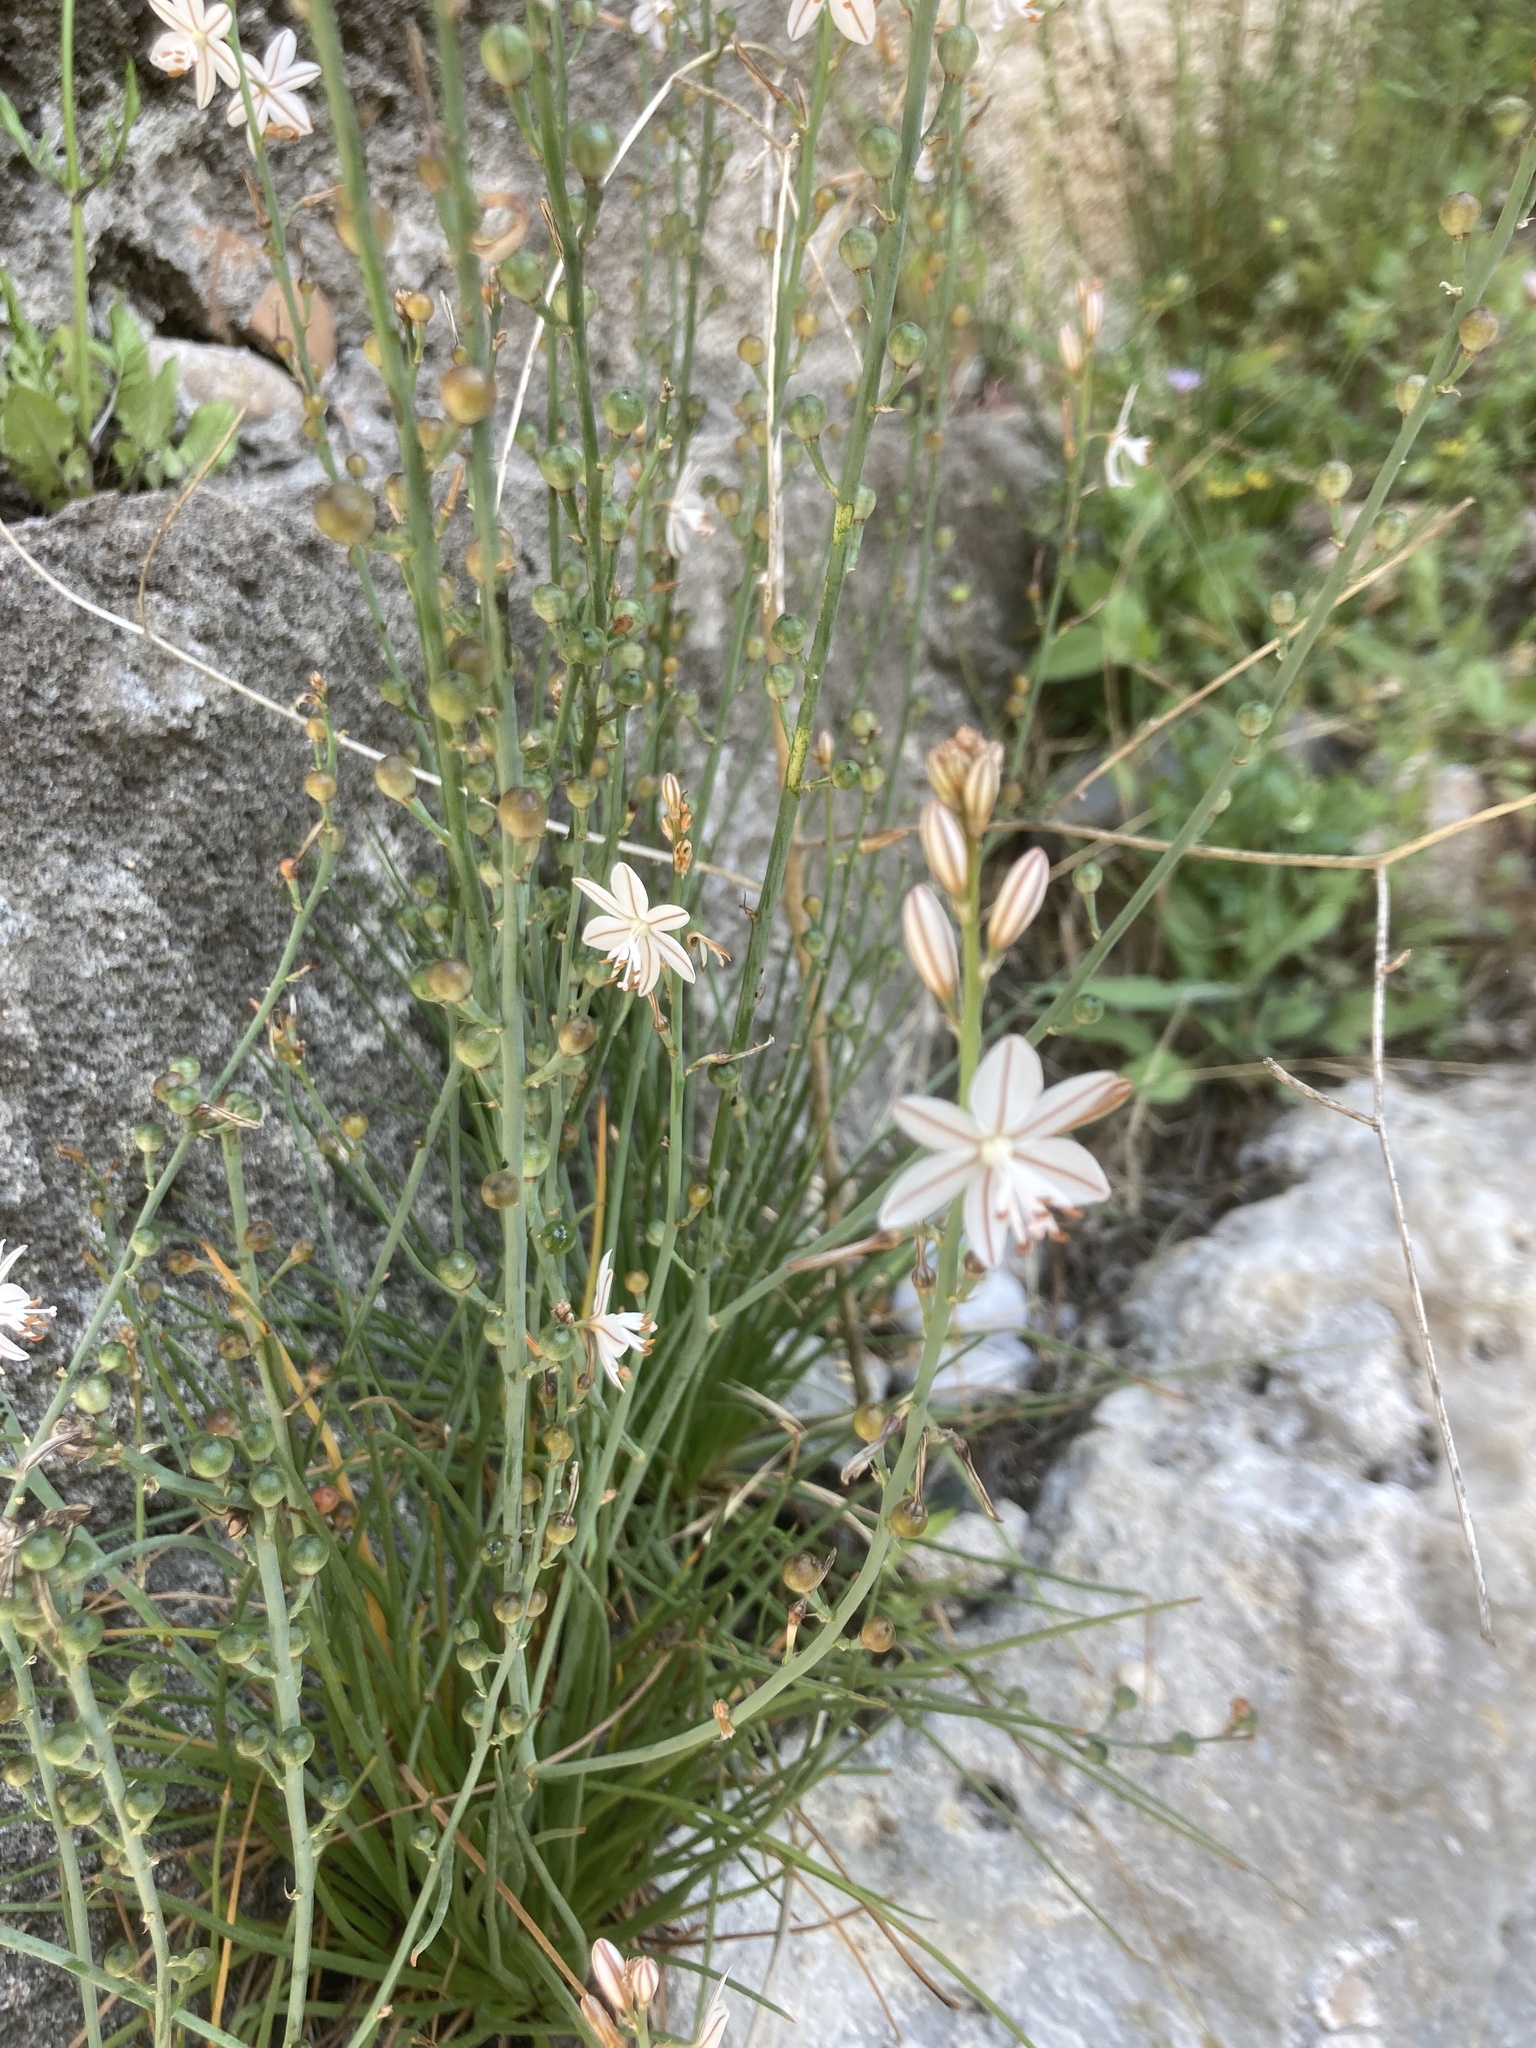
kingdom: Plantae
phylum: Tracheophyta
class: Liliopsida
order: Asparagales
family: Asphodelaceae
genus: Asphodelus
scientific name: Asphodelus fistulosus
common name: Onionweed
